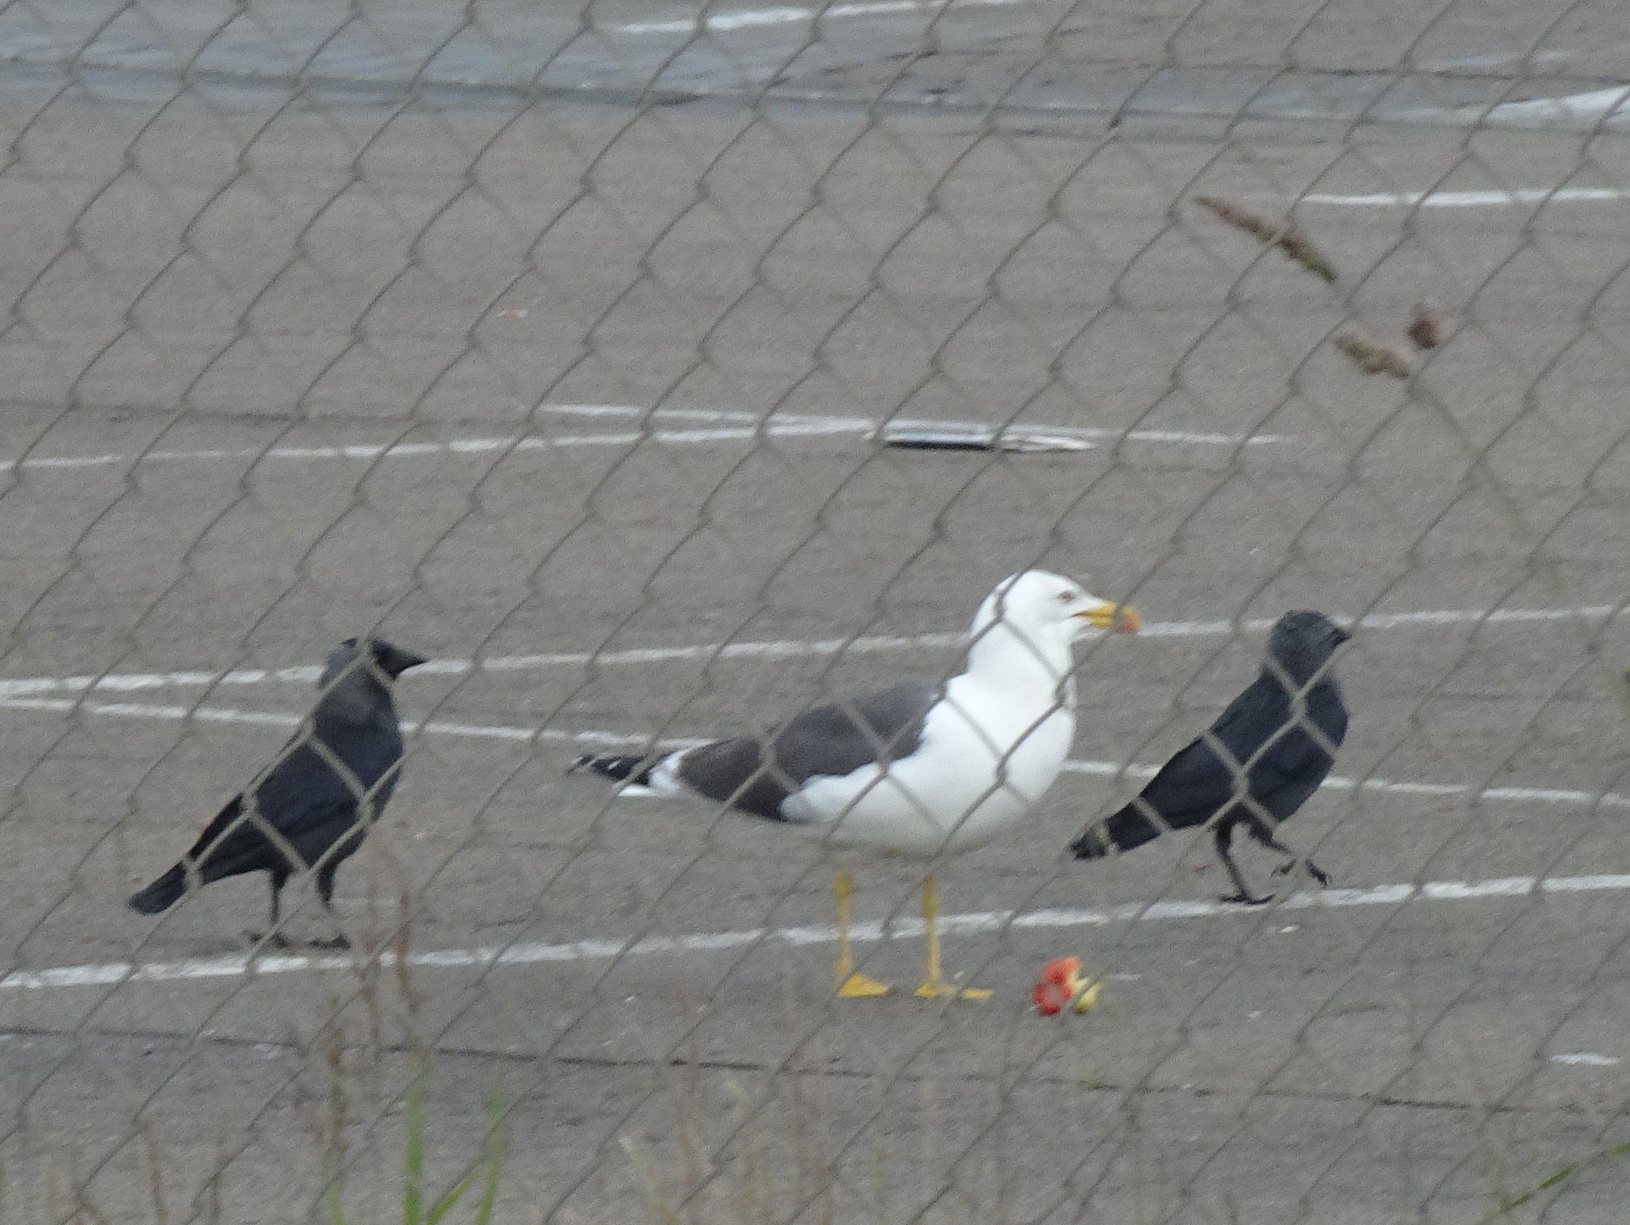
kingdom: Animalia
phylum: Chordata
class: Aves
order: Passeriformes
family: Corvidae
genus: Coloeus
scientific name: Coloeus monedula
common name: Western jackdaw
